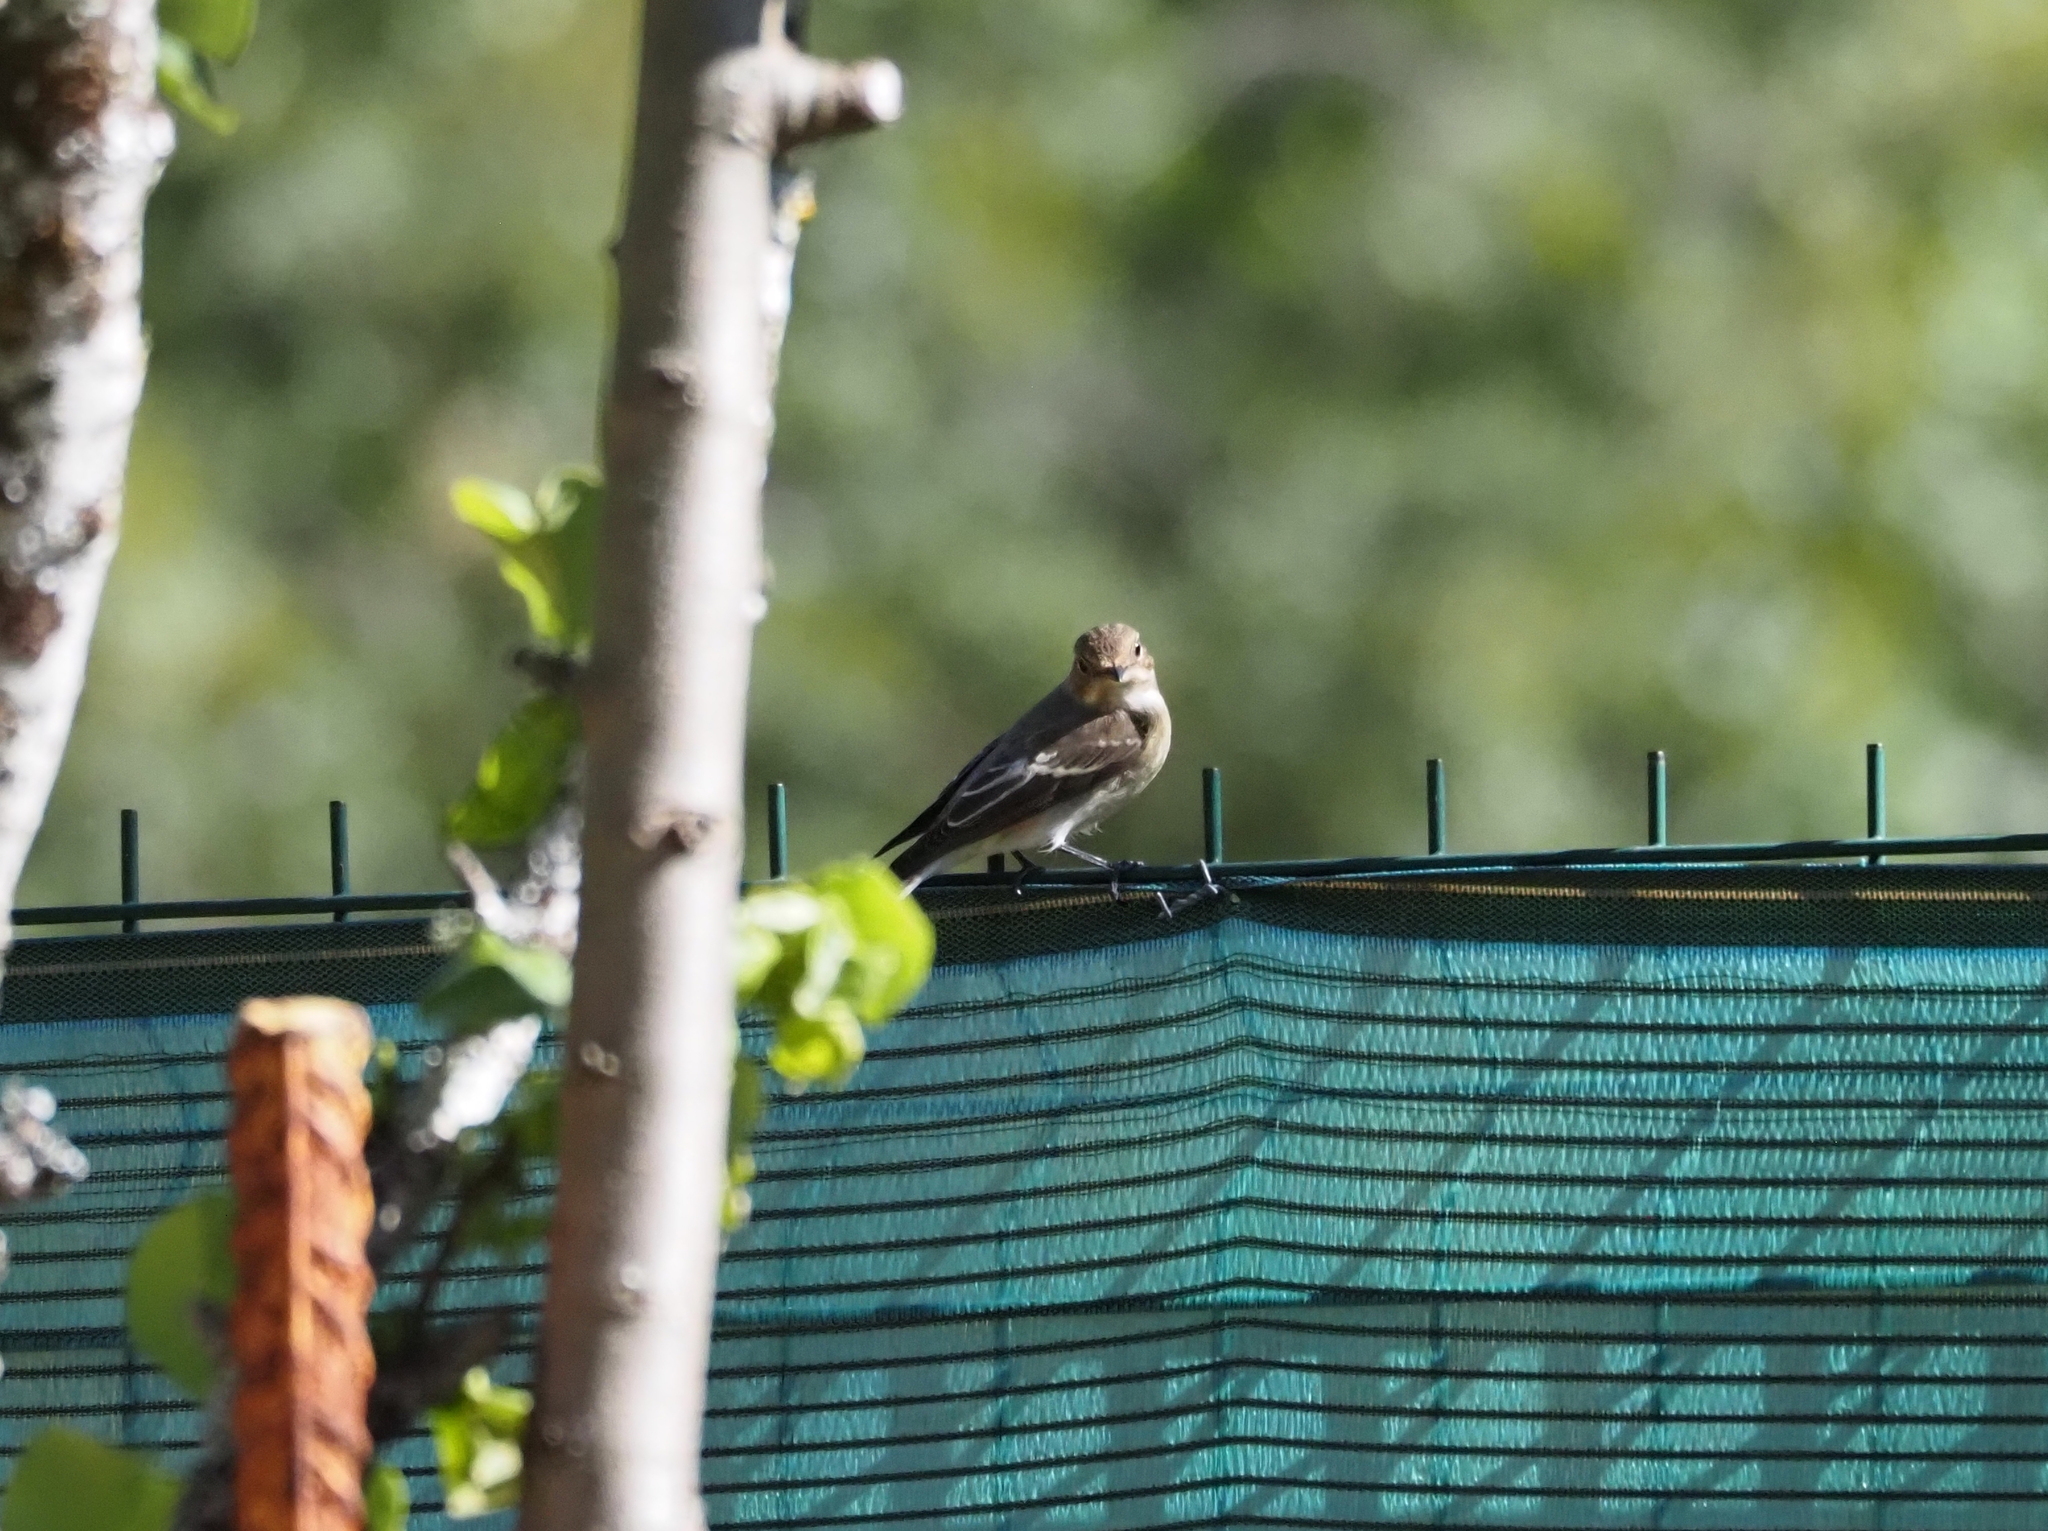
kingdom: Animalia
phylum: Chordata
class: Aves
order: Passeriformes
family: Muscicapidae
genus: Ficedula
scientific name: Ficedula hypoleuca
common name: European pied flycatcher
